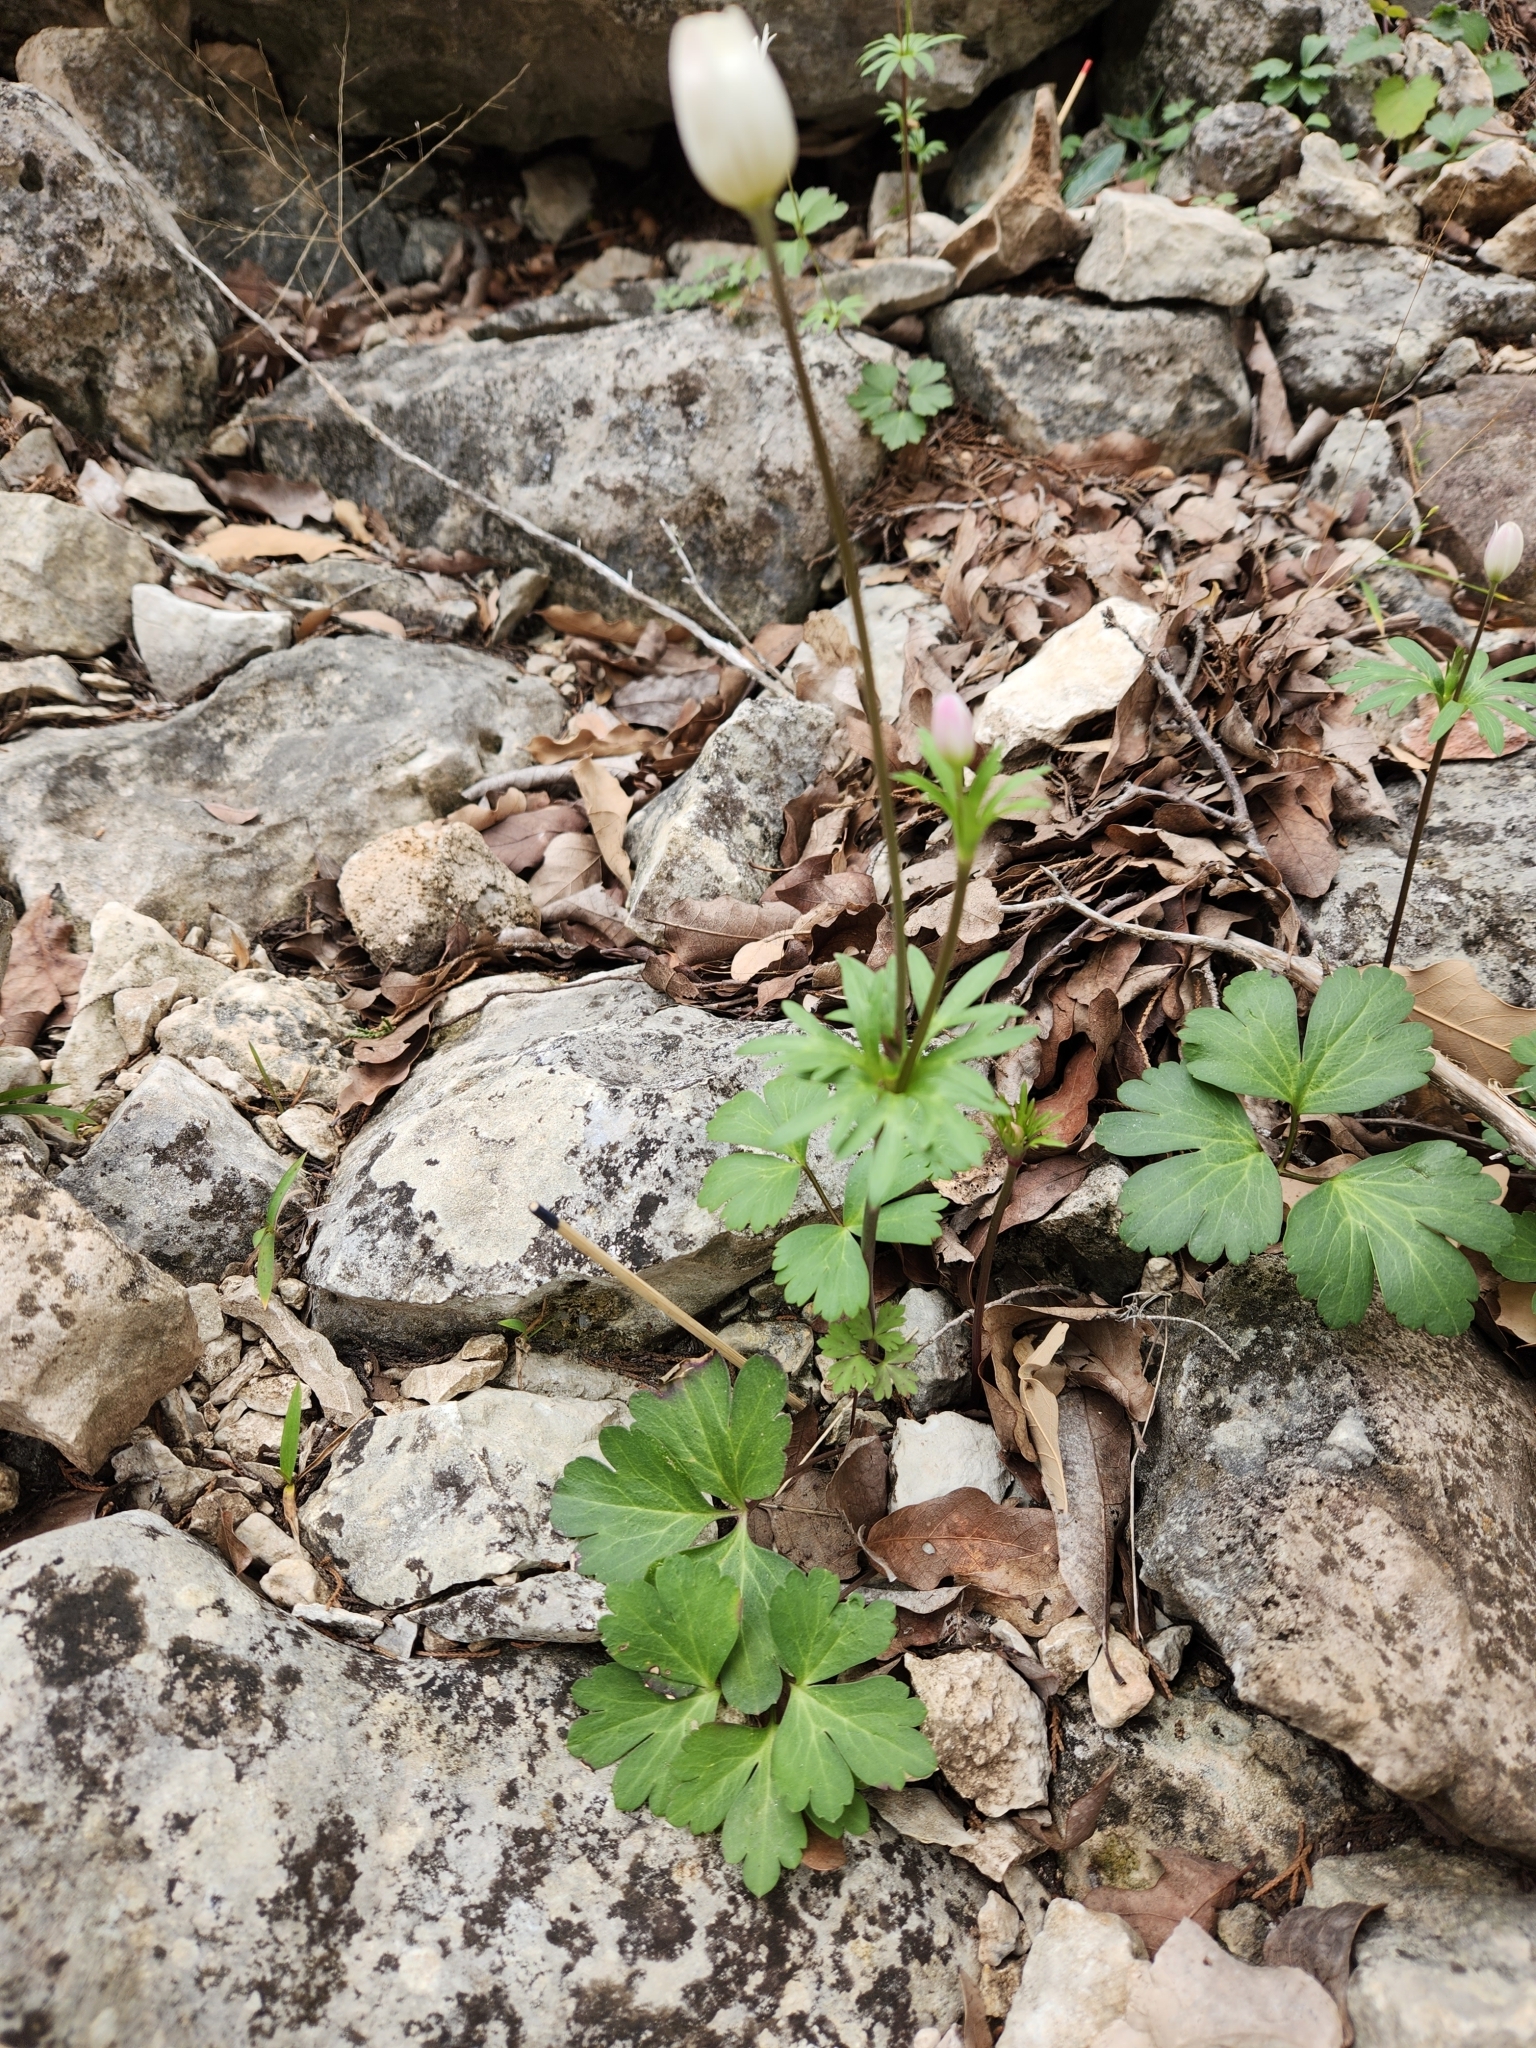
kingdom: Plantae
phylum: Tracheophyta
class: Magnoliopsida
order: Ranunculales
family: Ranunculaceae
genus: Anemone
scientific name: Anemone edwardsiana
